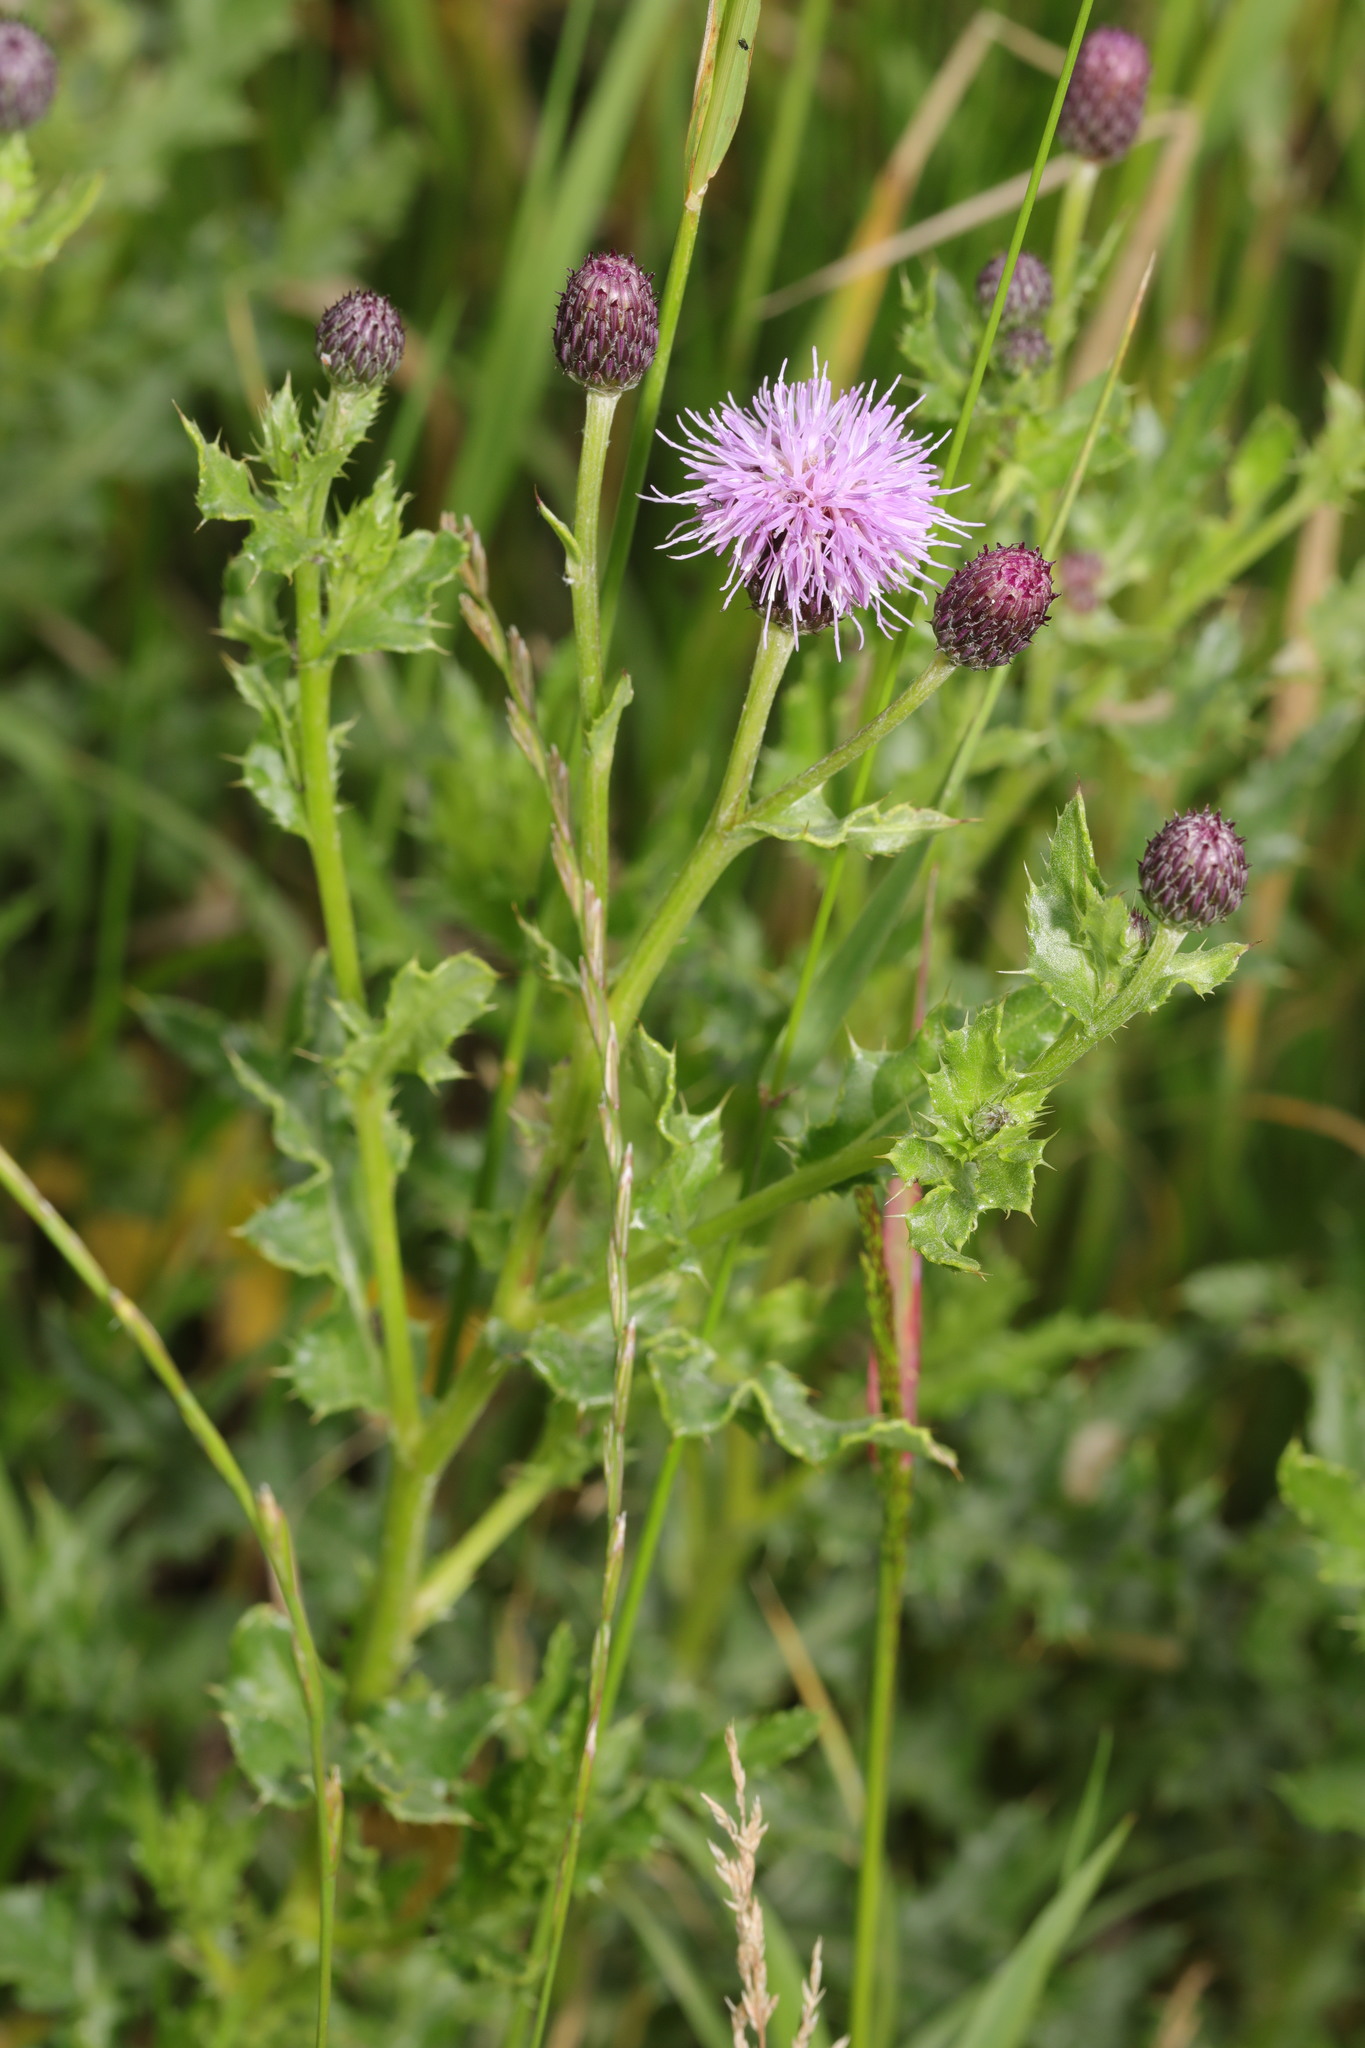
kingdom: Plantae
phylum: Tracheophyta
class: Magnoliopsida
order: Asterales
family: Asteraceae
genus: Cirsium
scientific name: Cirsium arvense
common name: Creeping thistle
